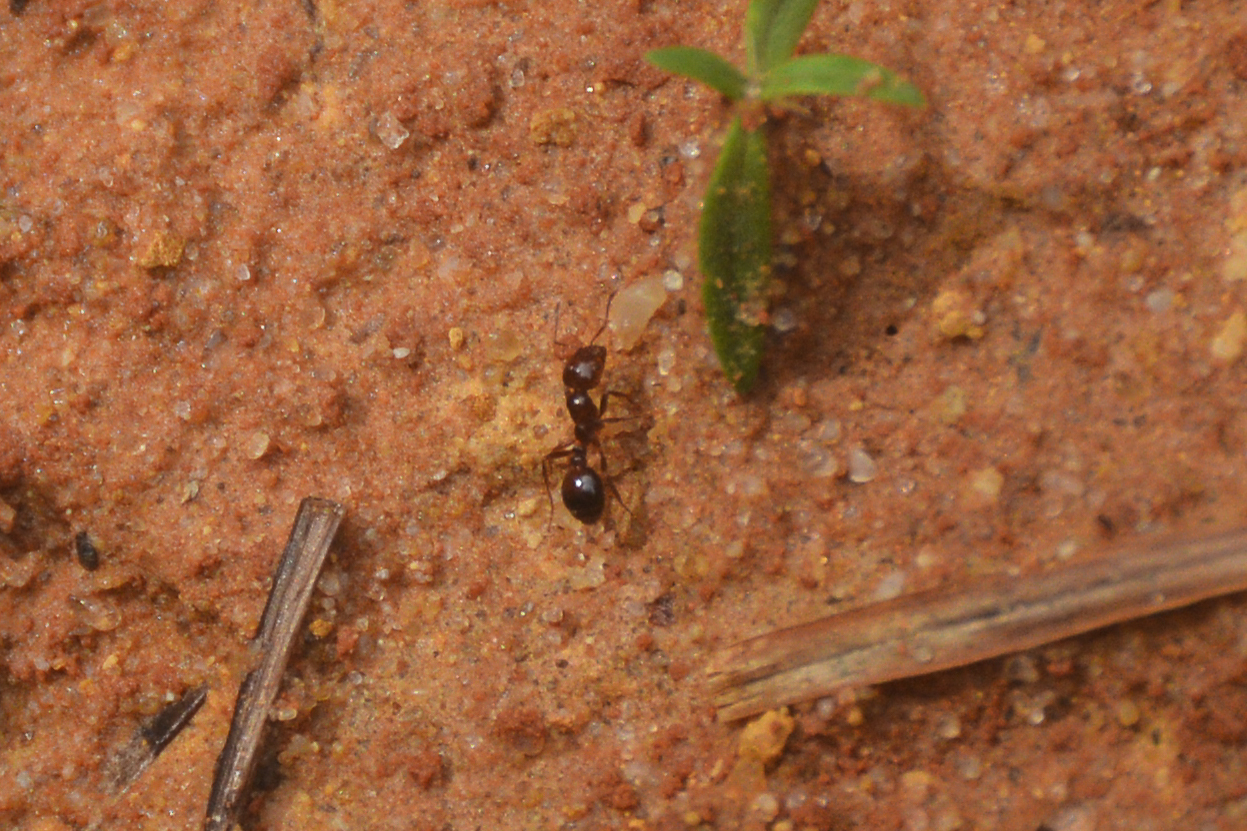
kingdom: Animalia
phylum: Arthropoda
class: Insecta
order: Hymenoptera
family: Formicidae
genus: Solenopsis
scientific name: Solenopsis invicta
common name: Red imported fire ant
